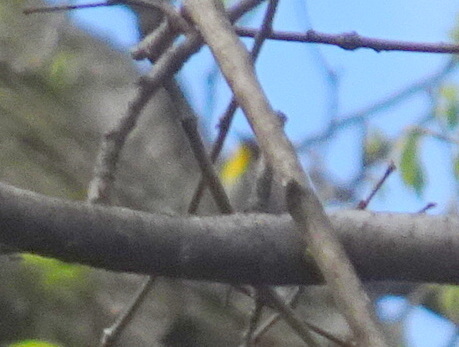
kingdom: Animalia
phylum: Chordata
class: Aves
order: Passeriformes
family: Parulidae
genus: Setophaga
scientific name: Setophaga dominica
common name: Yellow-throated warbler
